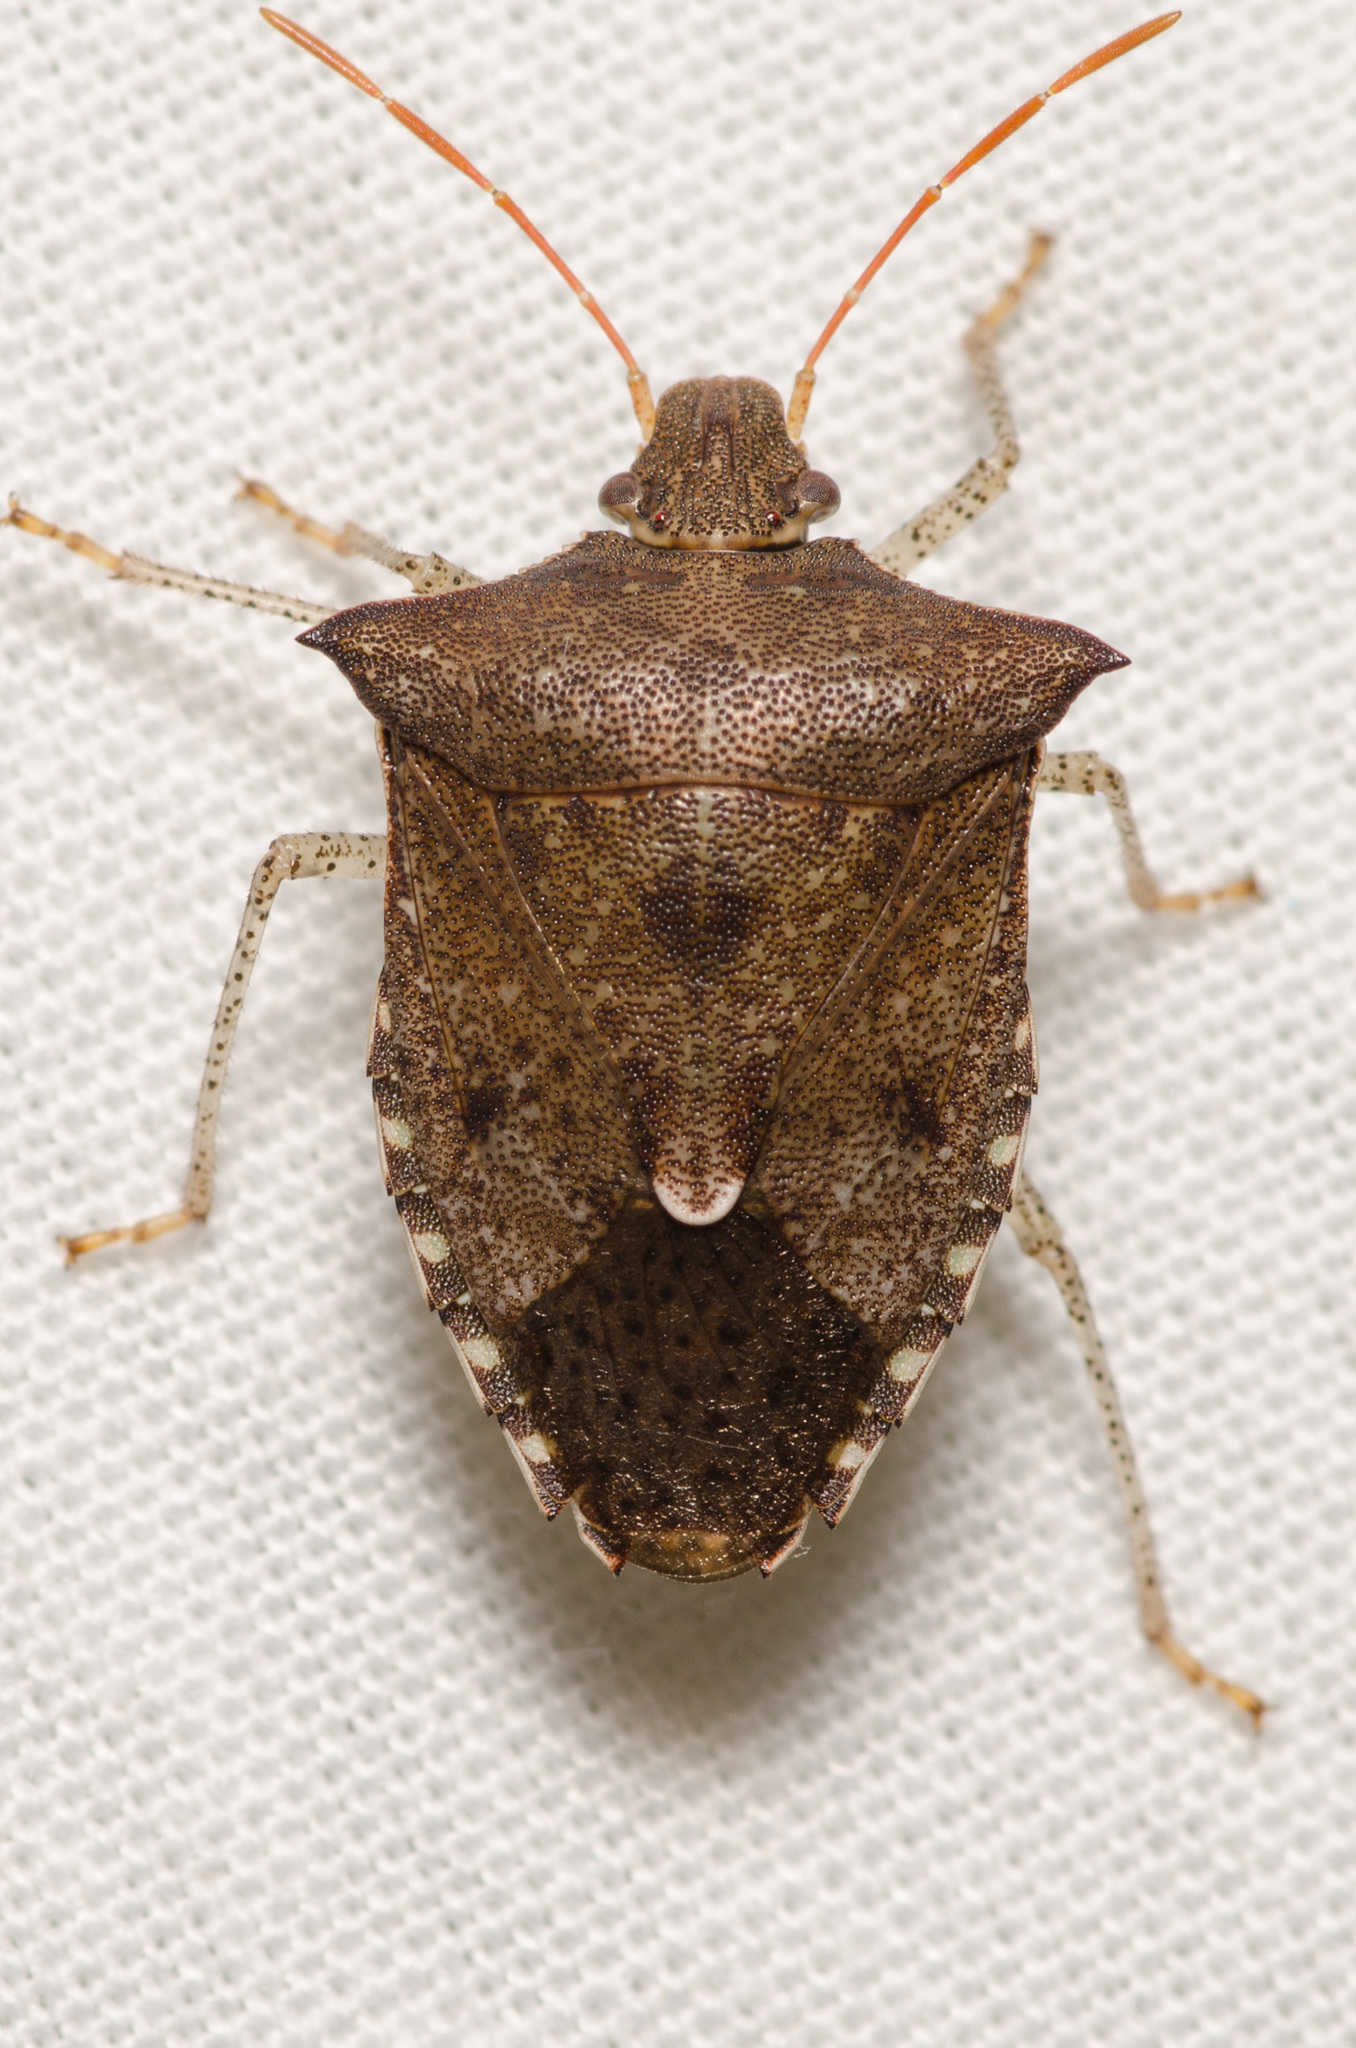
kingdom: Animalia
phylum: Arthropoda
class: Insecta
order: Hemiptera
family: Pentatomidae
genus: Euschistus
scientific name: Euschistus tristigmus
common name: Dusky stink bug
